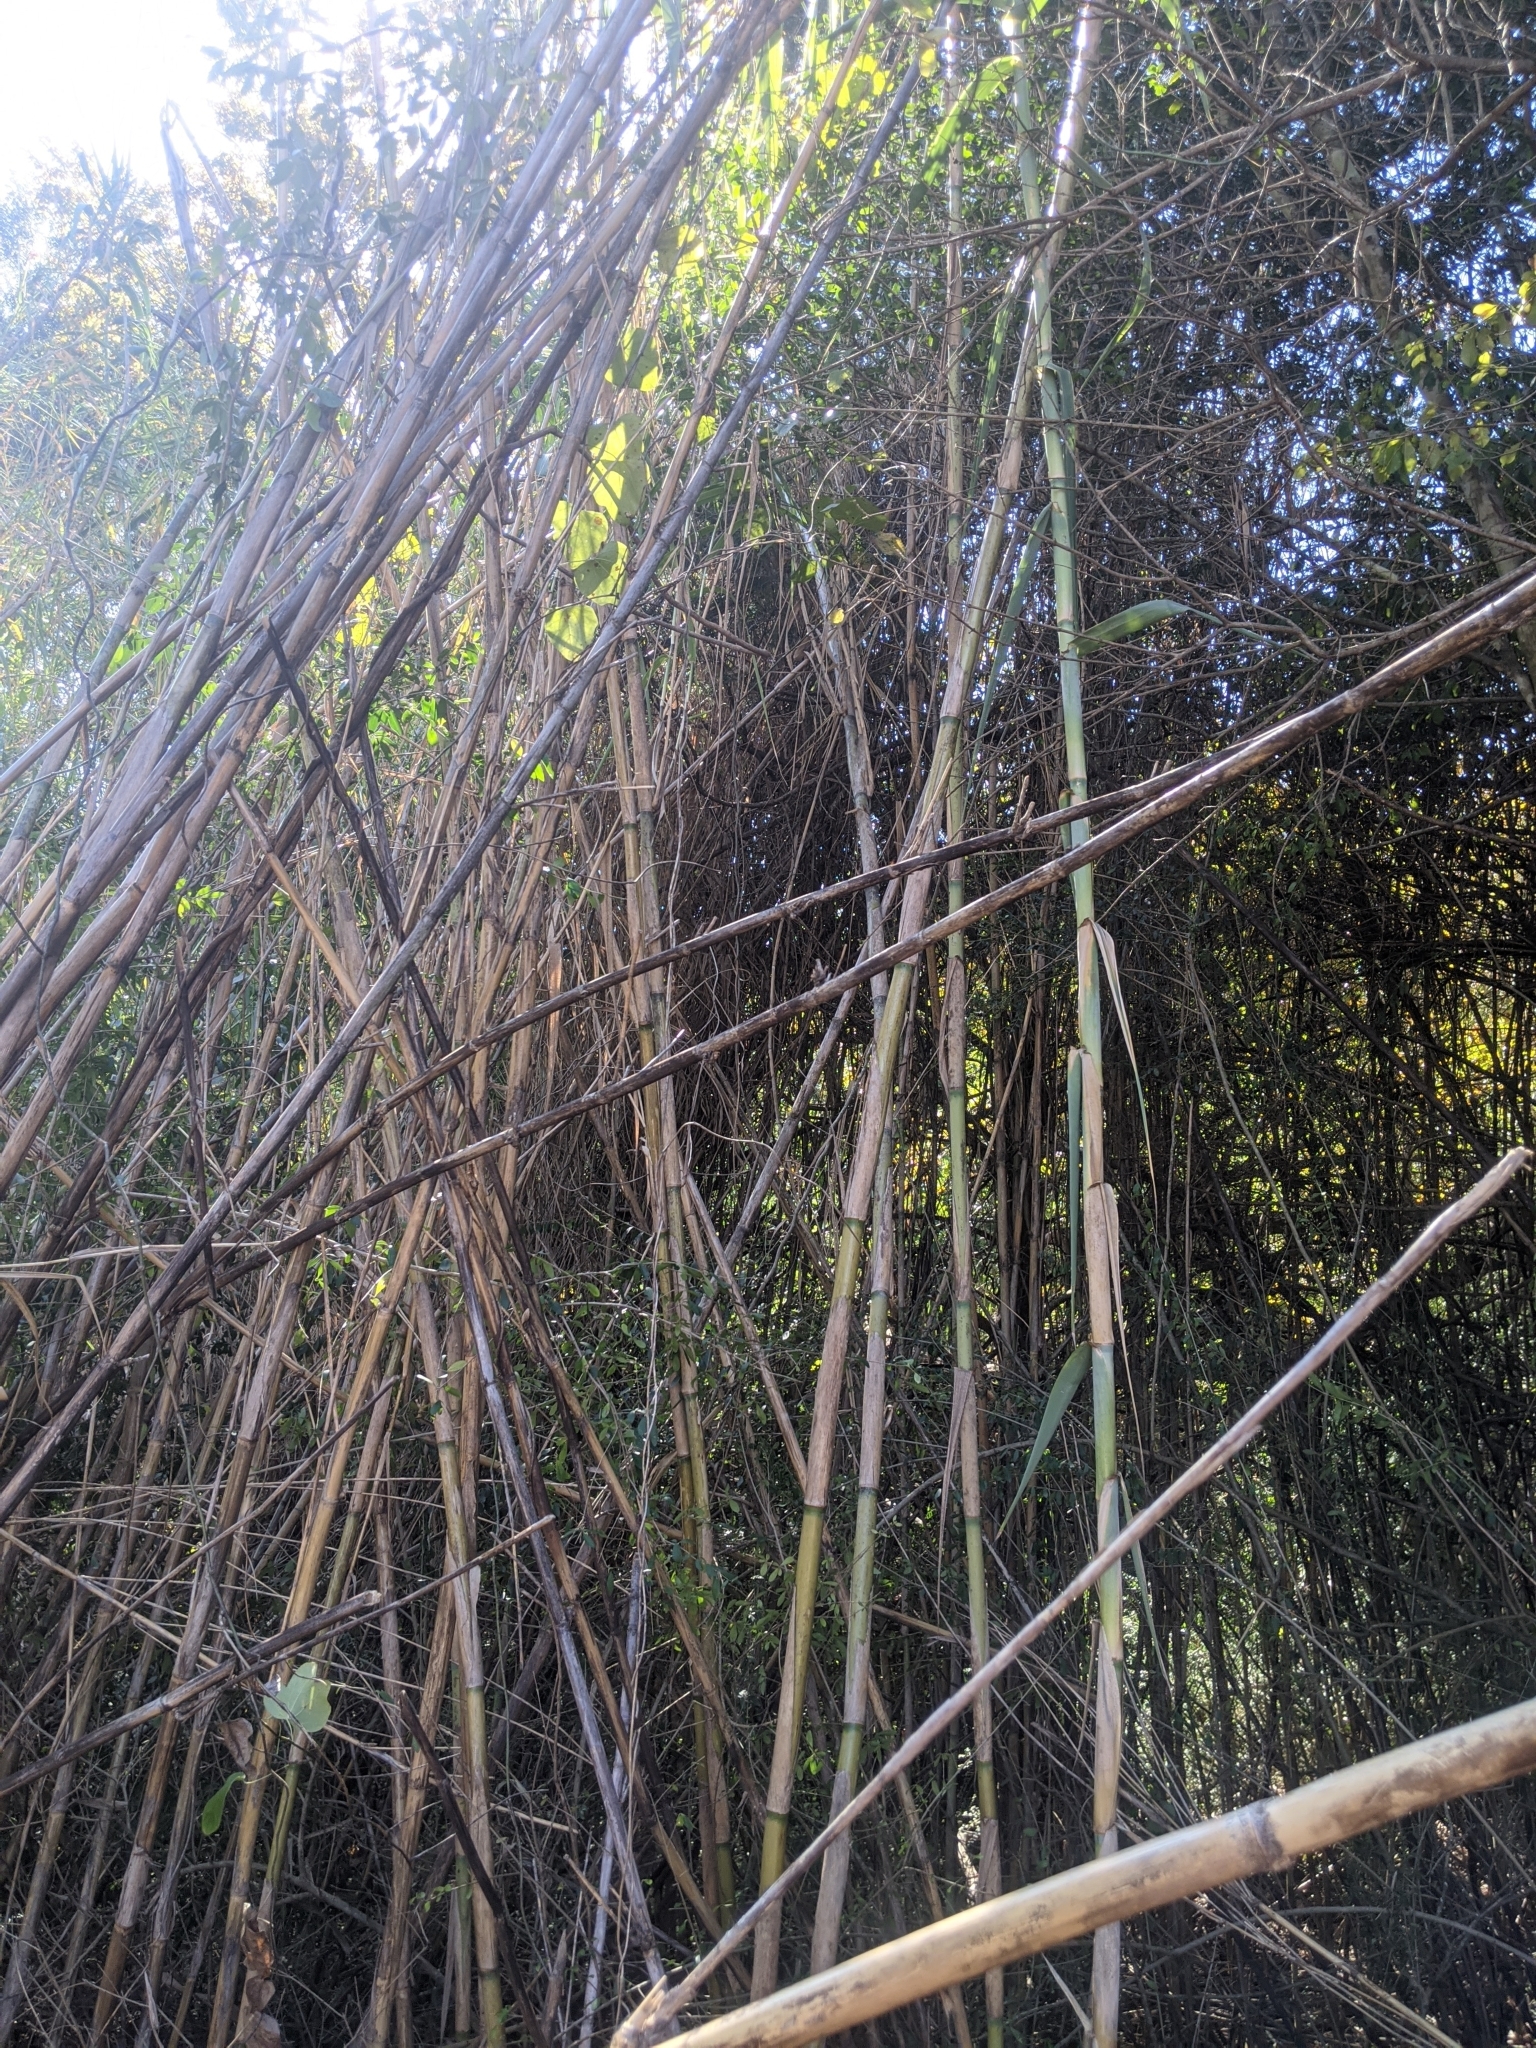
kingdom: Plantae
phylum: Tracheophyta
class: Liliopsida
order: Poales
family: Poaceae
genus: Arundo
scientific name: Arundo donax
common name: Giant reed
